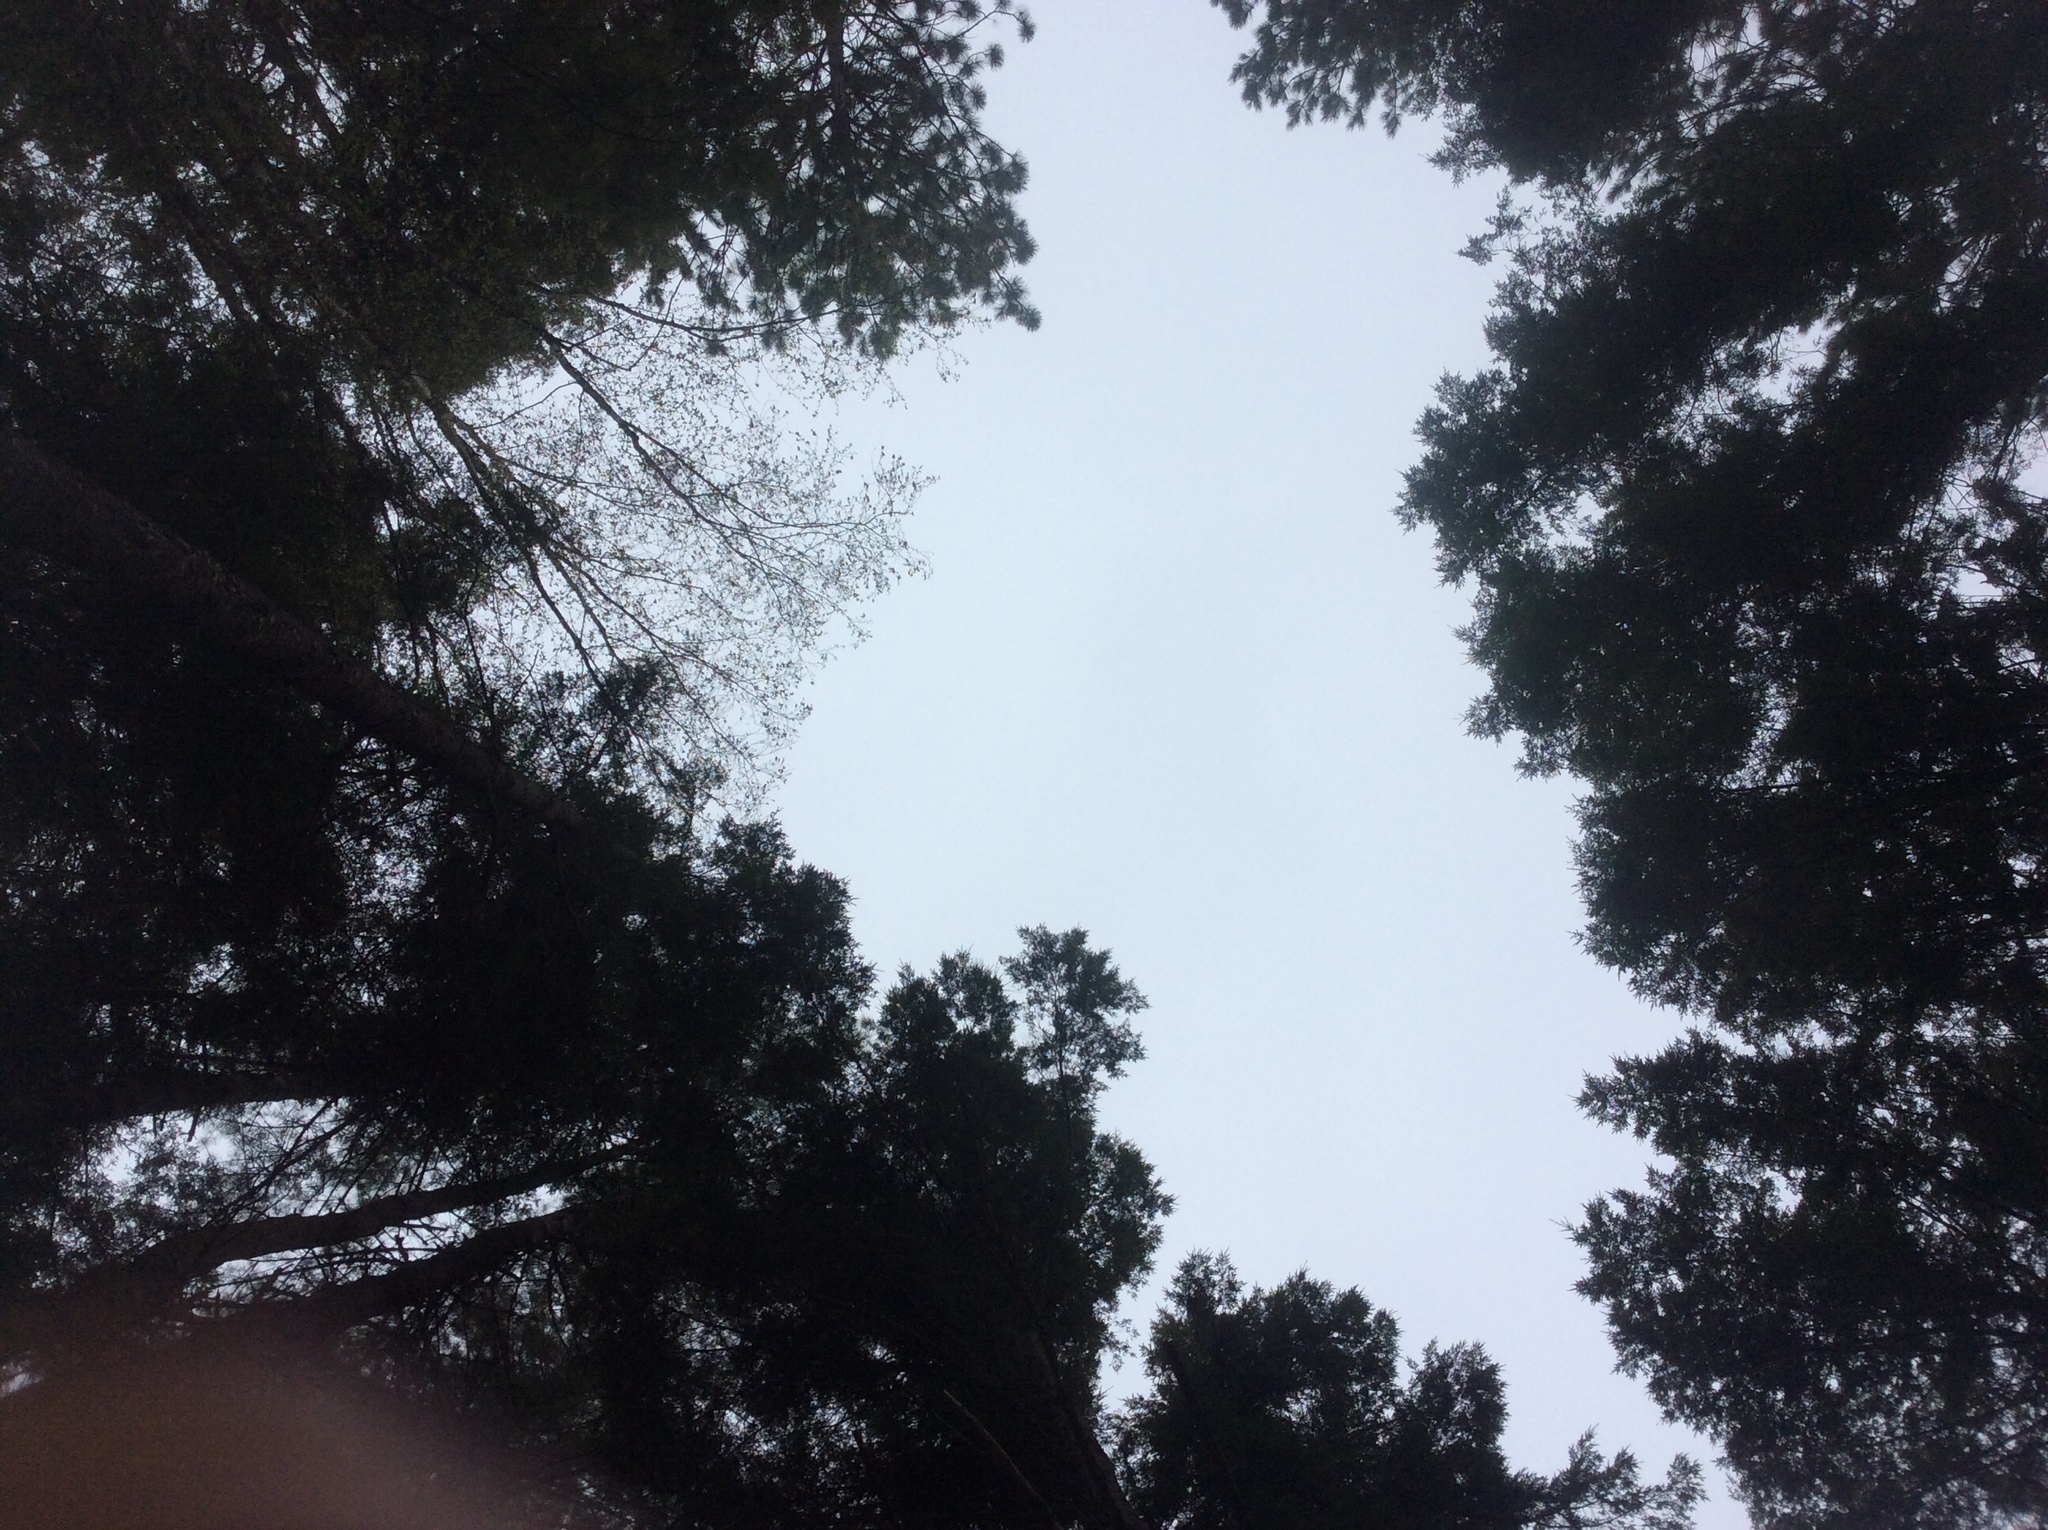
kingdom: Plantae
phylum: Tracheophyta
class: Magnoliopsida
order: Fagales
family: Betulaceae
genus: Betula
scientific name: Betula alleghaniensis
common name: Yellow birch
